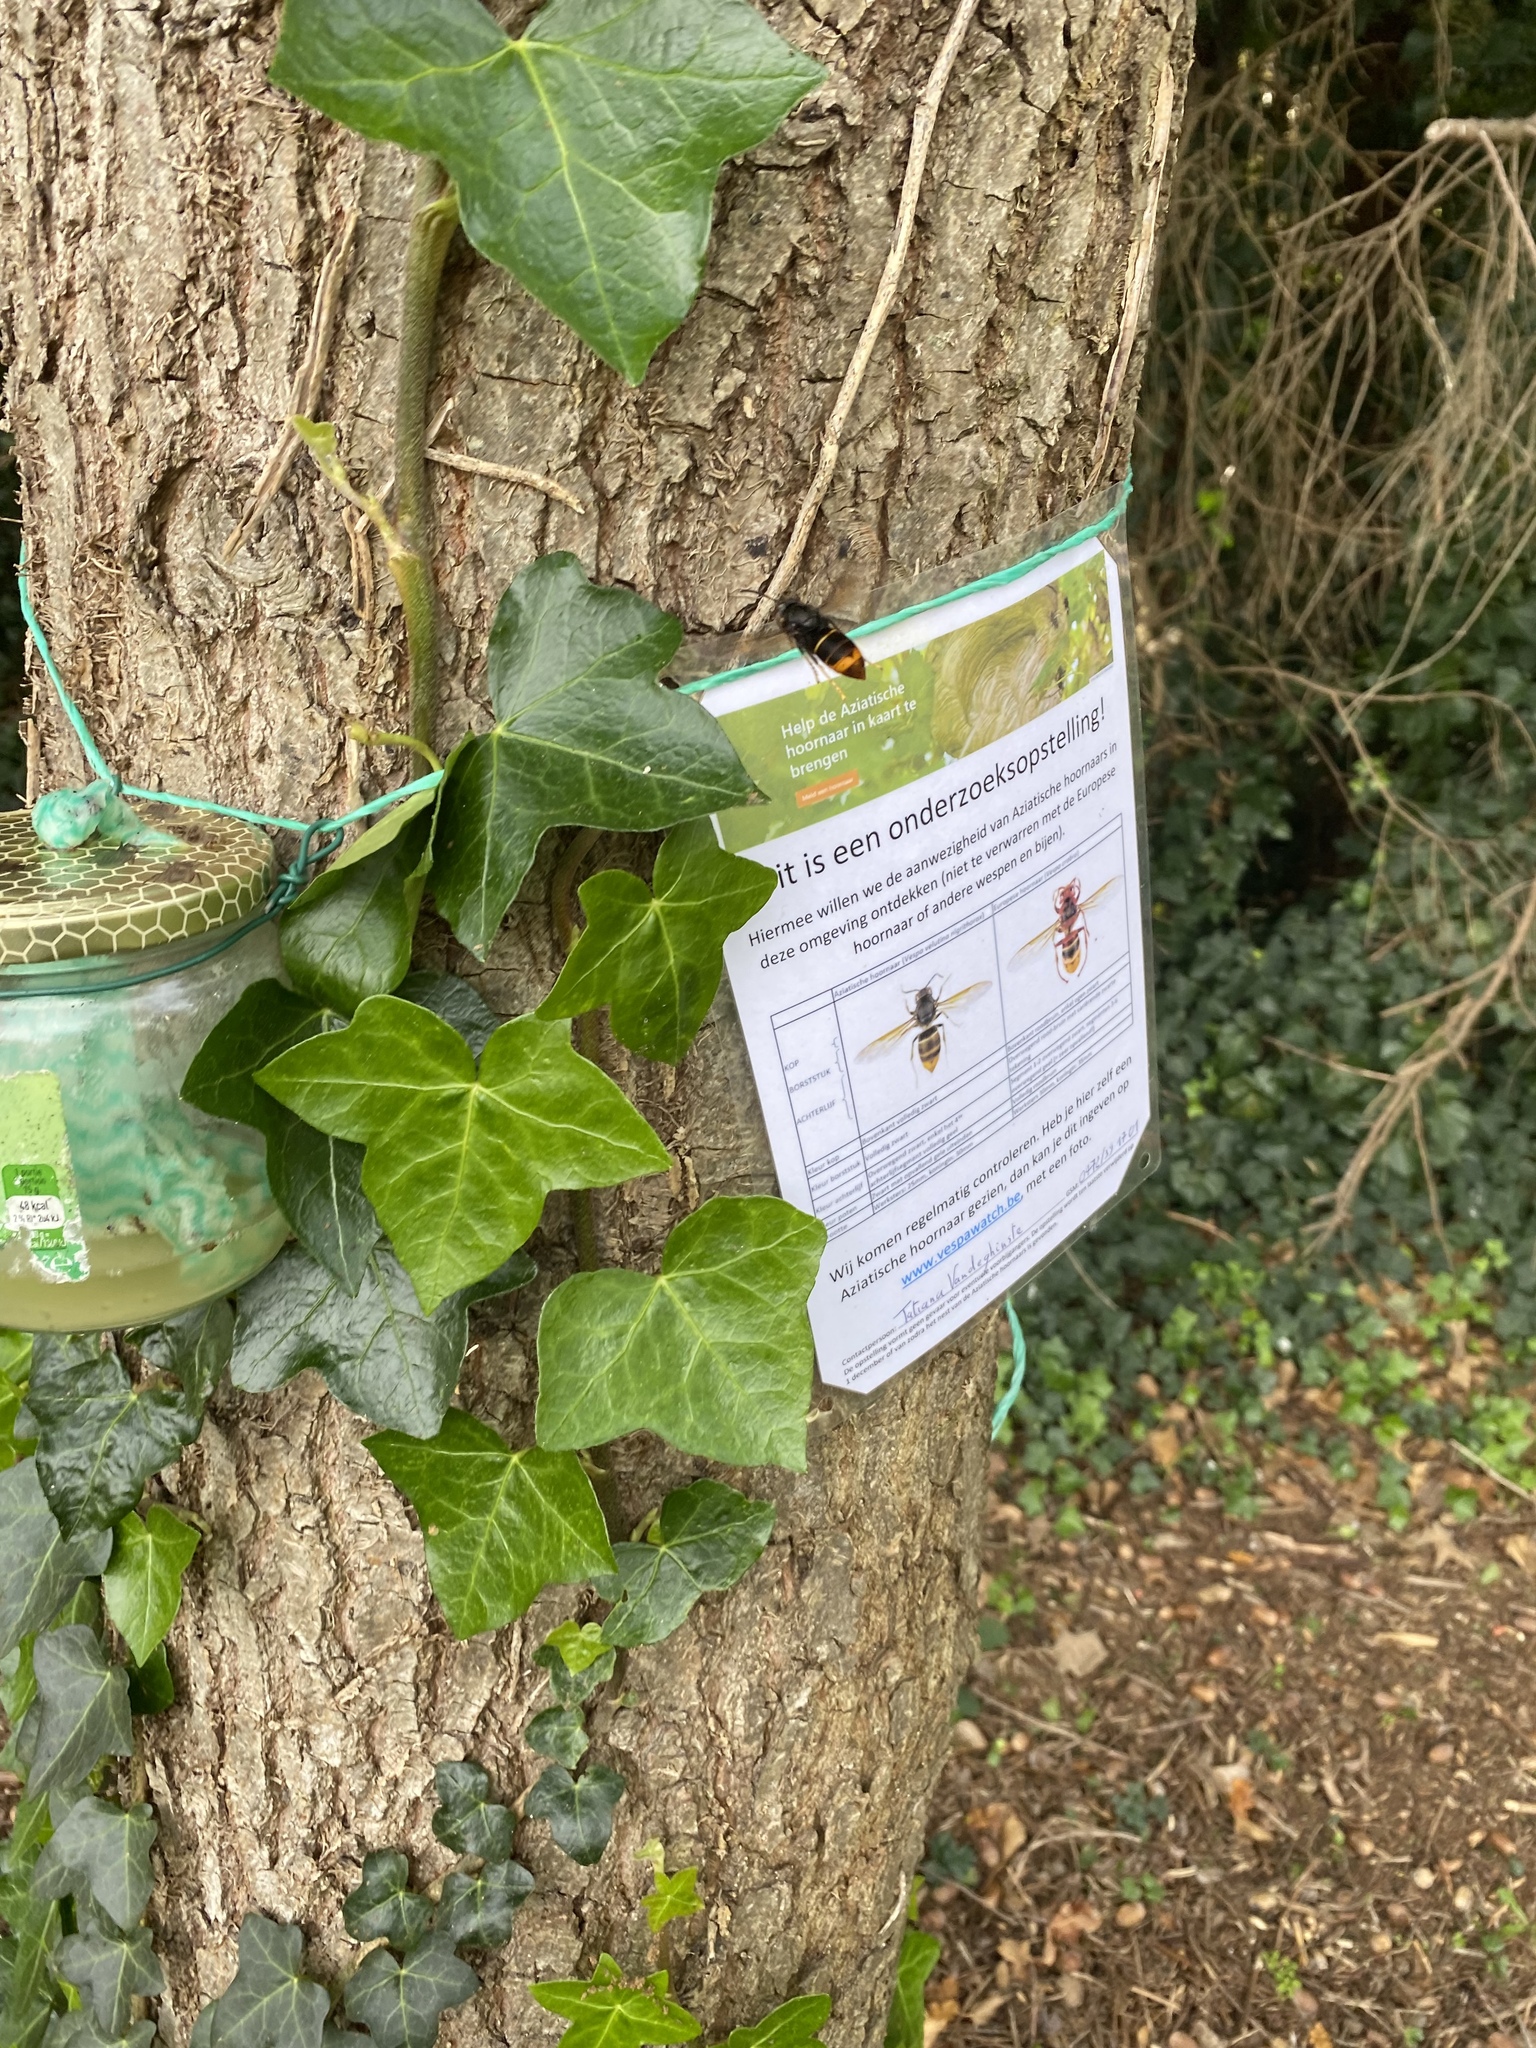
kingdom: Animalia
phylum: Arthropoda
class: Insecta
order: Hymenoptera
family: Vespidae
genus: Vespa
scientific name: Vespa velutina
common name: Asian hornet
